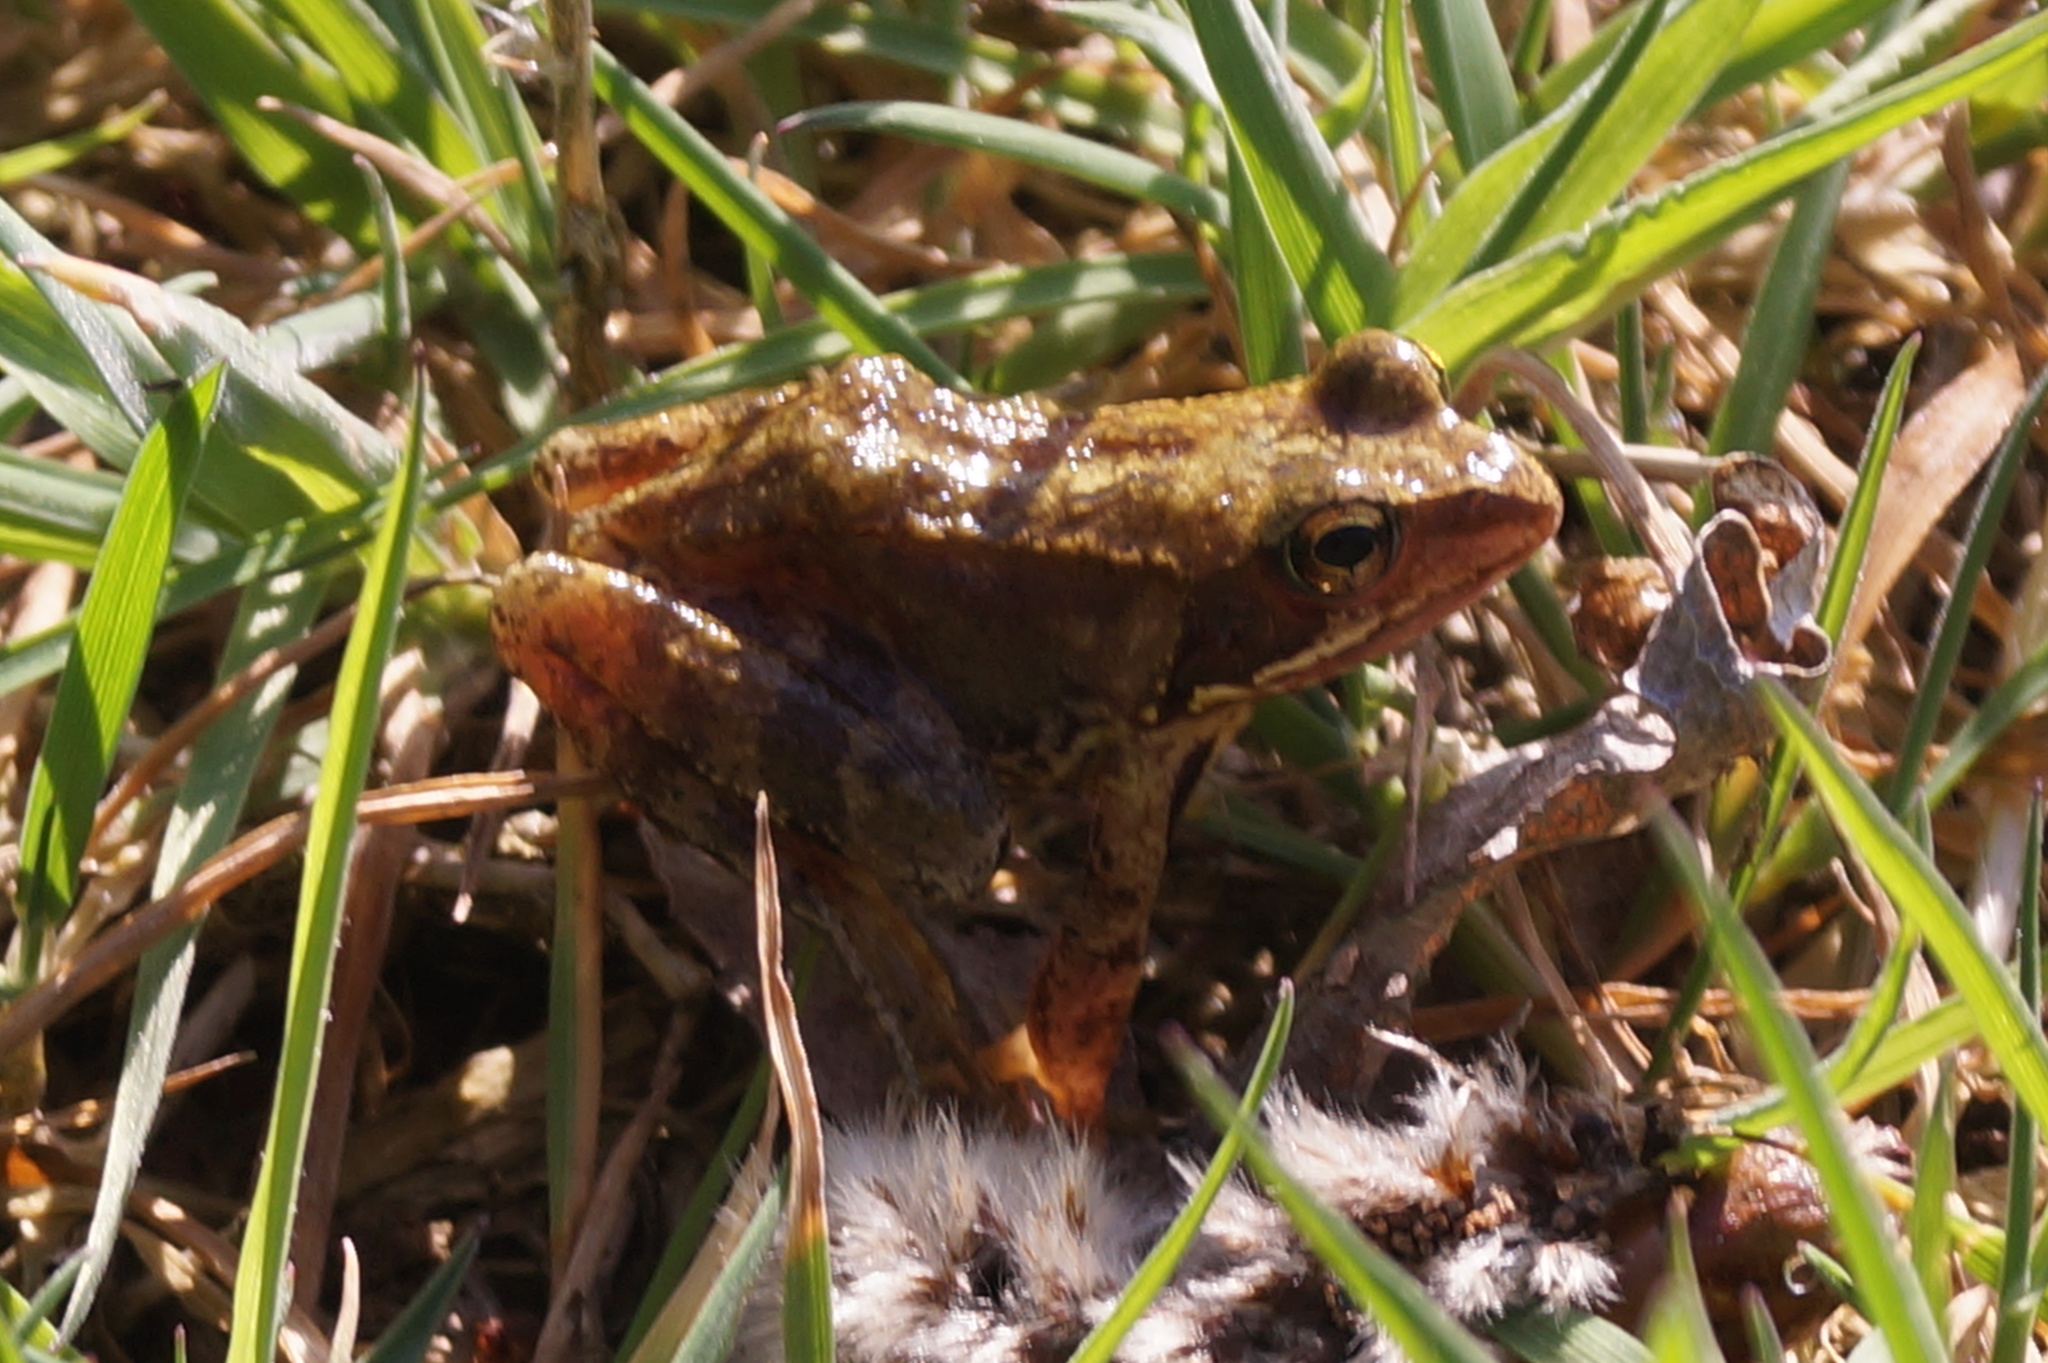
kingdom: Animalia
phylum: Chordata
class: Amphibia
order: Anura
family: Ranidae
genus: Rana
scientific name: Rana temporaria
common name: Common frog
